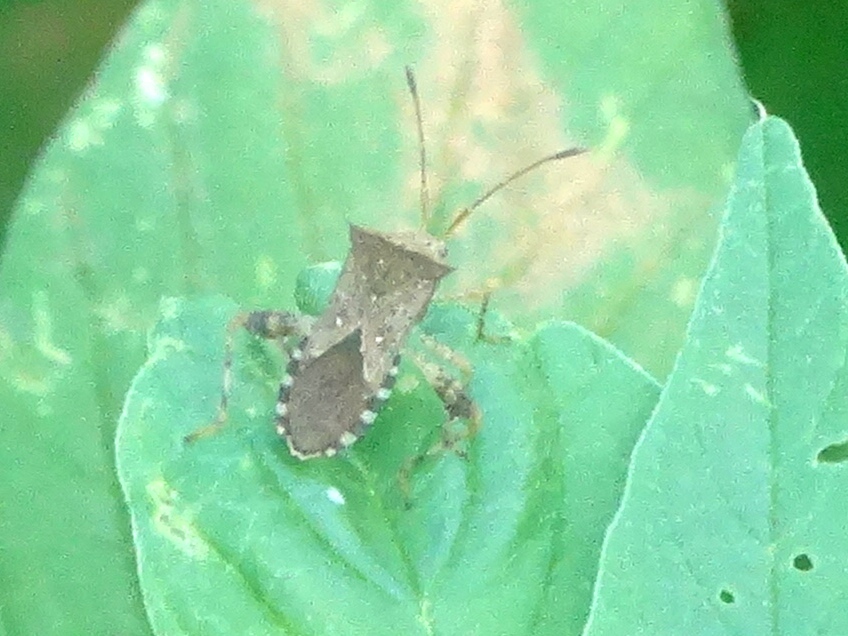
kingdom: Animalia
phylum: Arthropoda
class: Insecta
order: Hemiptera
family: Coreidae
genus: Zicca
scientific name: Zicca taeniola
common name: Leaf-footed bug
